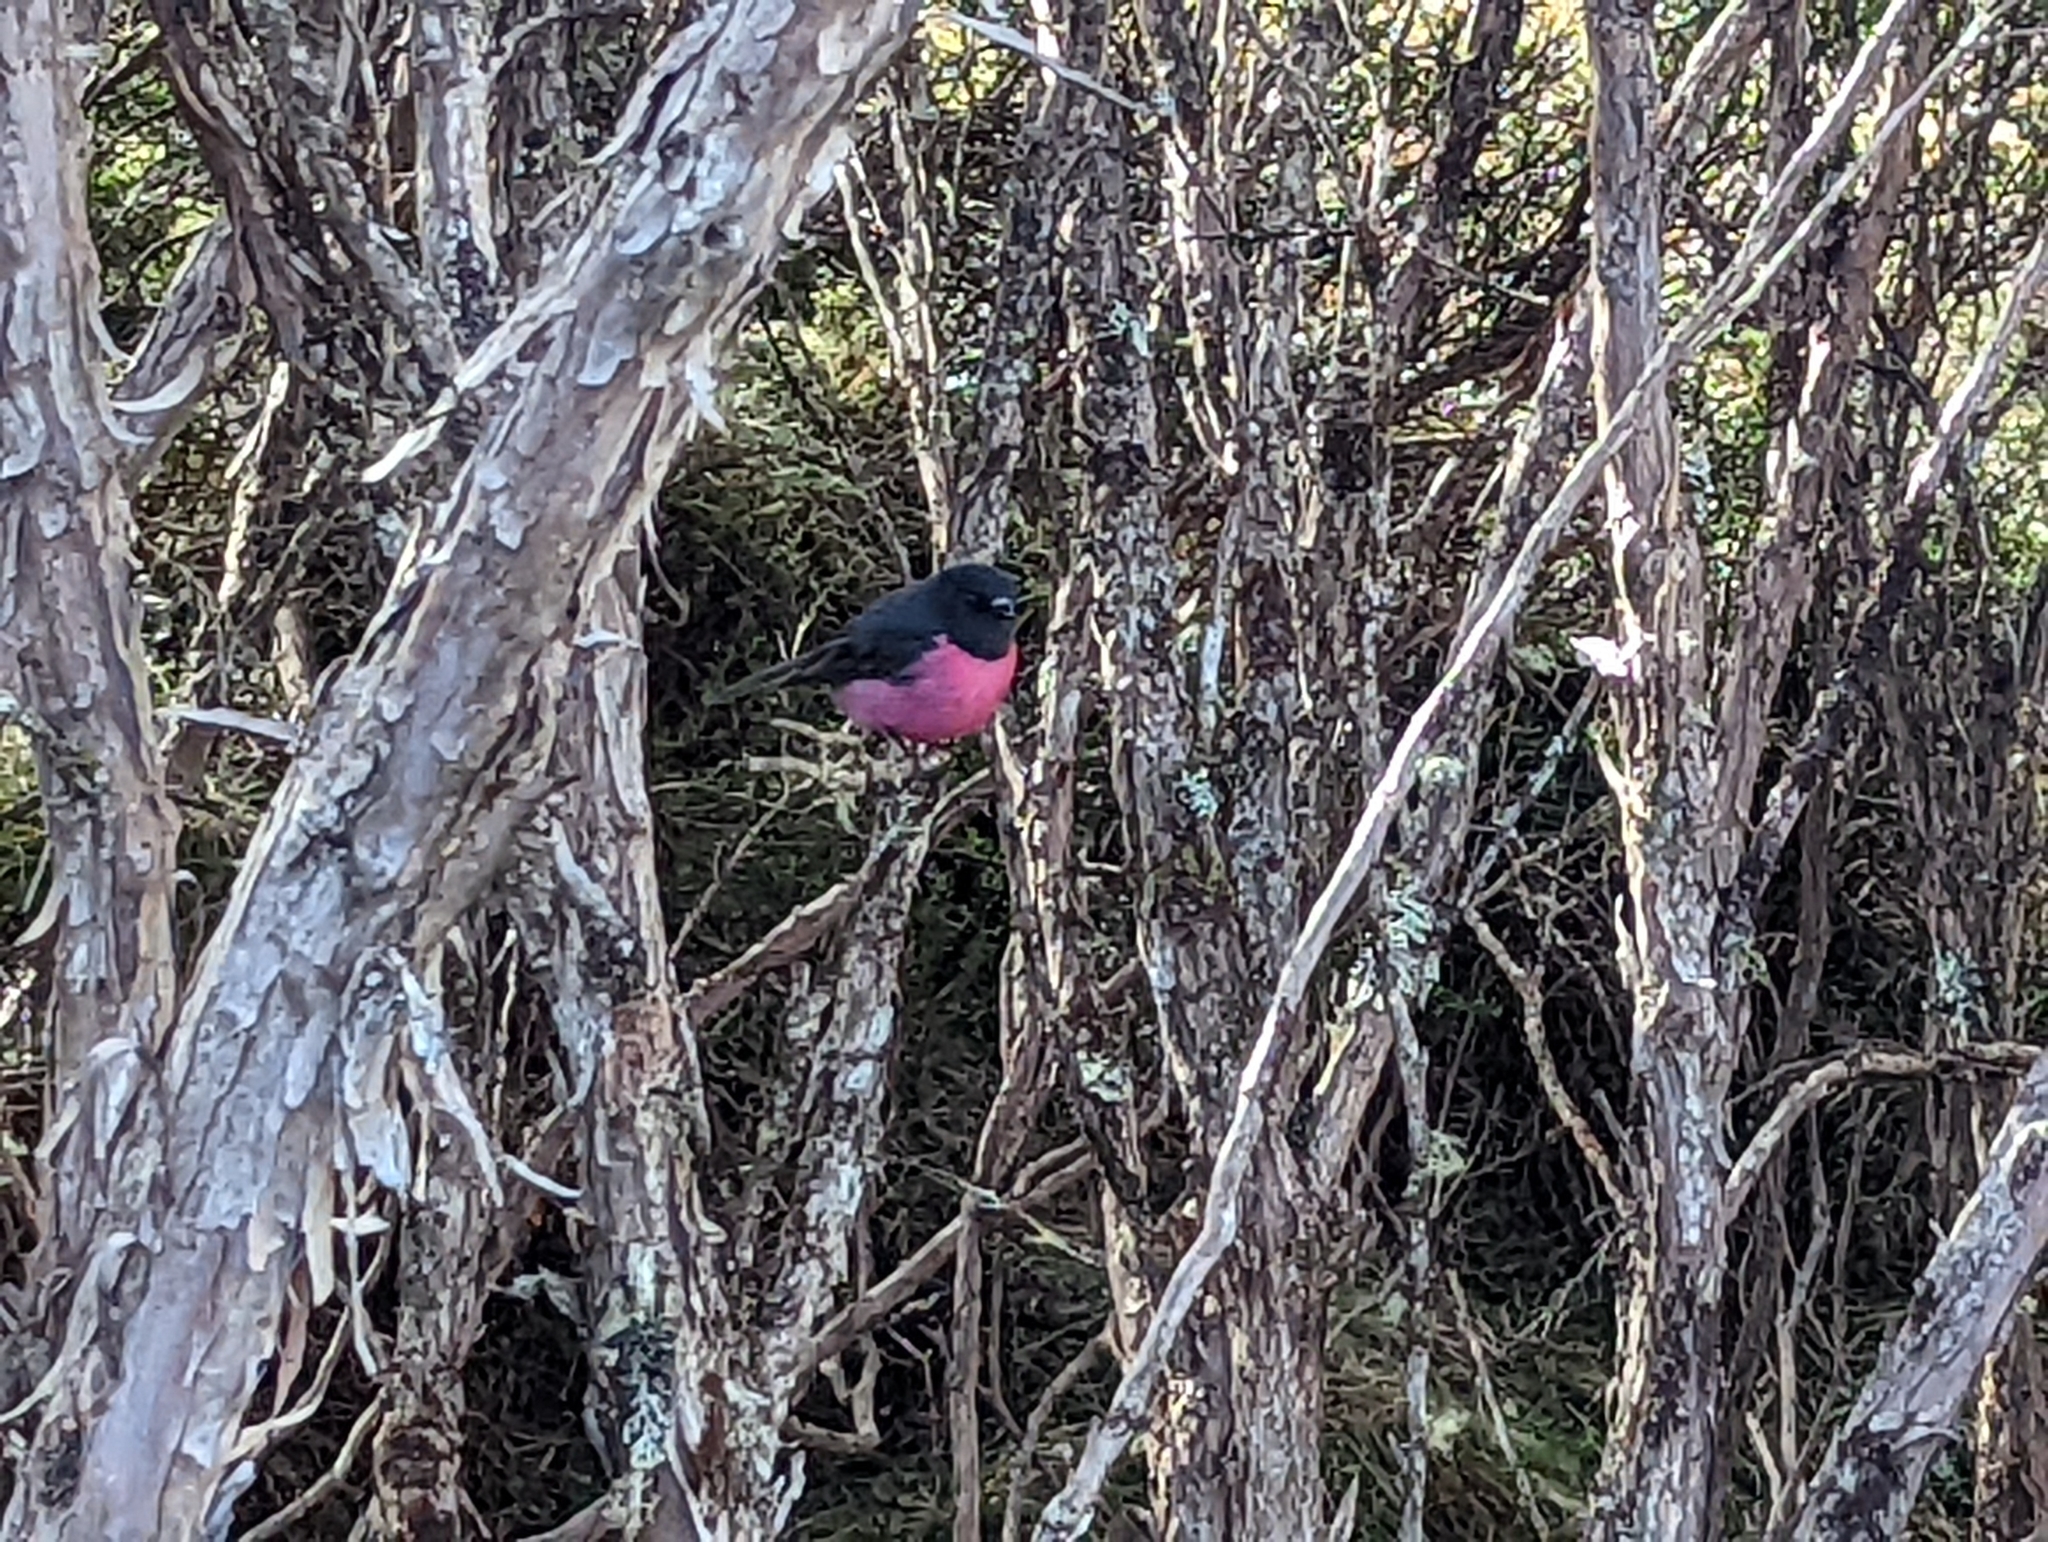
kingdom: Animalia
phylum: Chordata
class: Aves
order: Passeriformes
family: Petroicidae
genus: Petroica
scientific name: Petroica rodinogaster
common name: Pink robin
